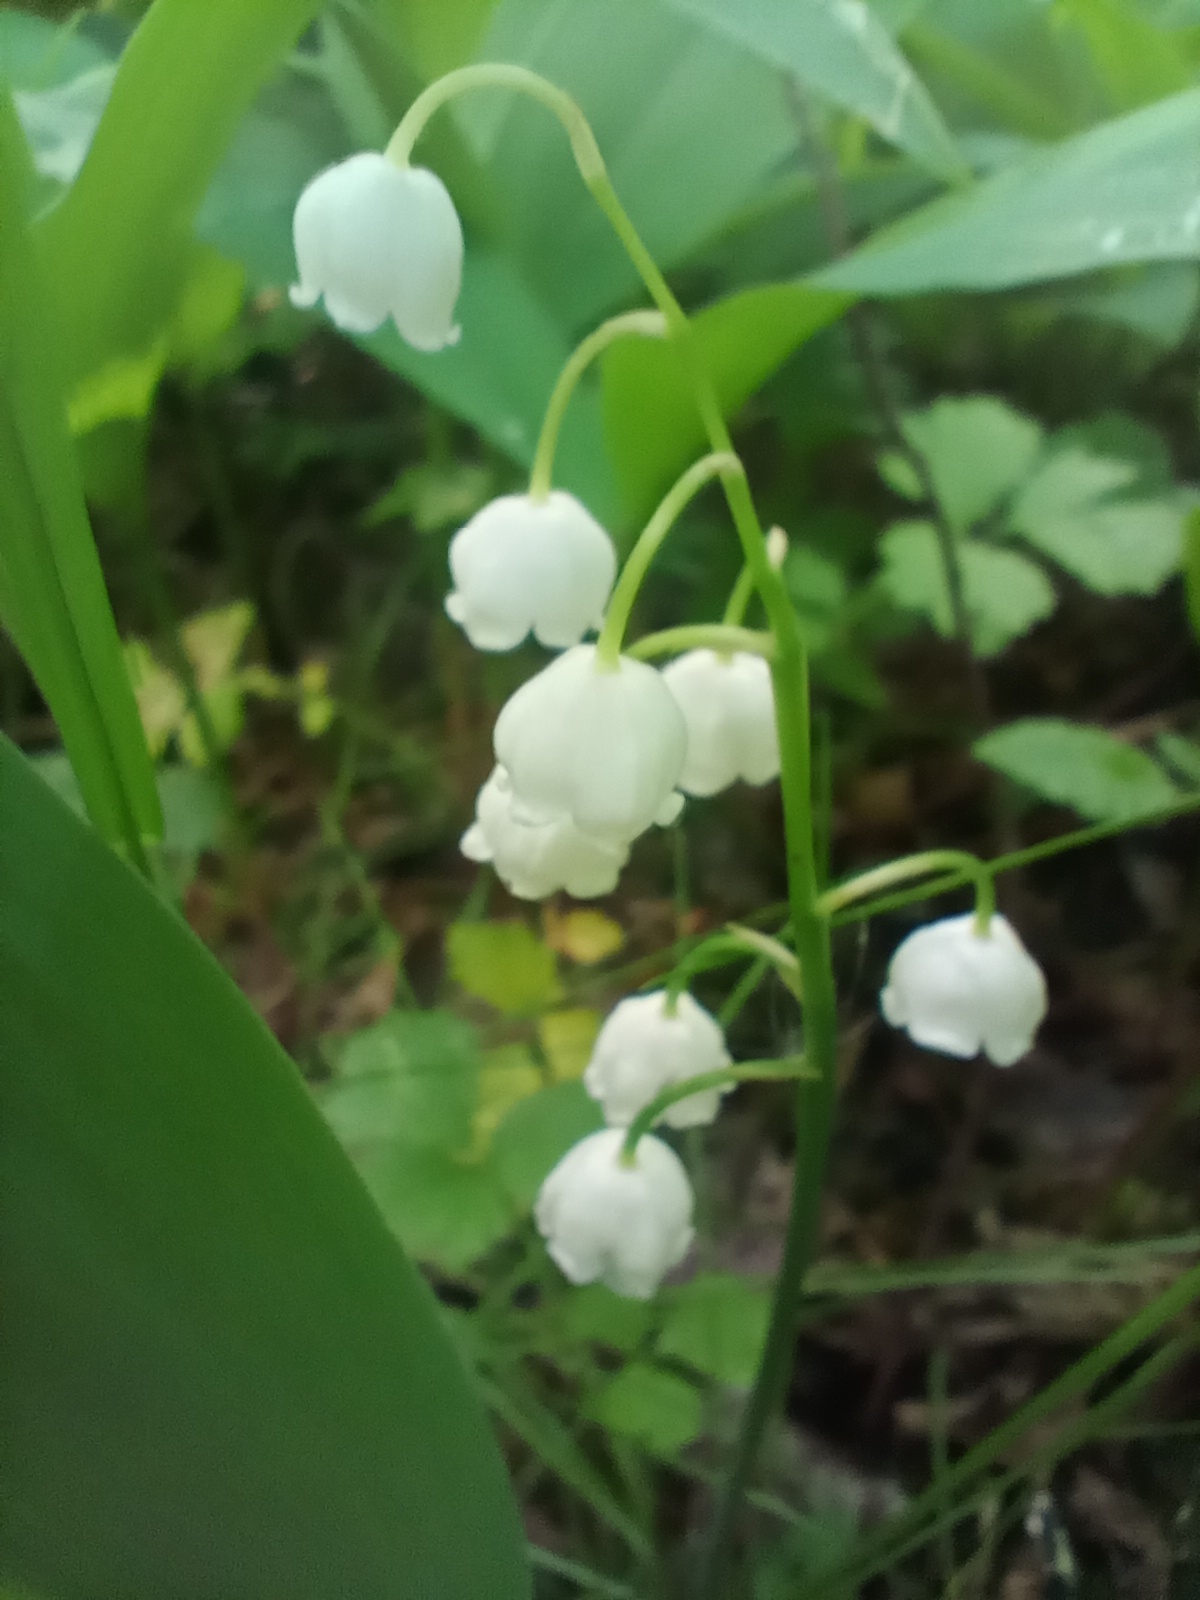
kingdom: Plantae
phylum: Tracheophyta
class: Liliopsida
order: Asparagales
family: Asparagaceae
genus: Convallaria
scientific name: Convallaria majalis
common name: Lily-of-the-valley
